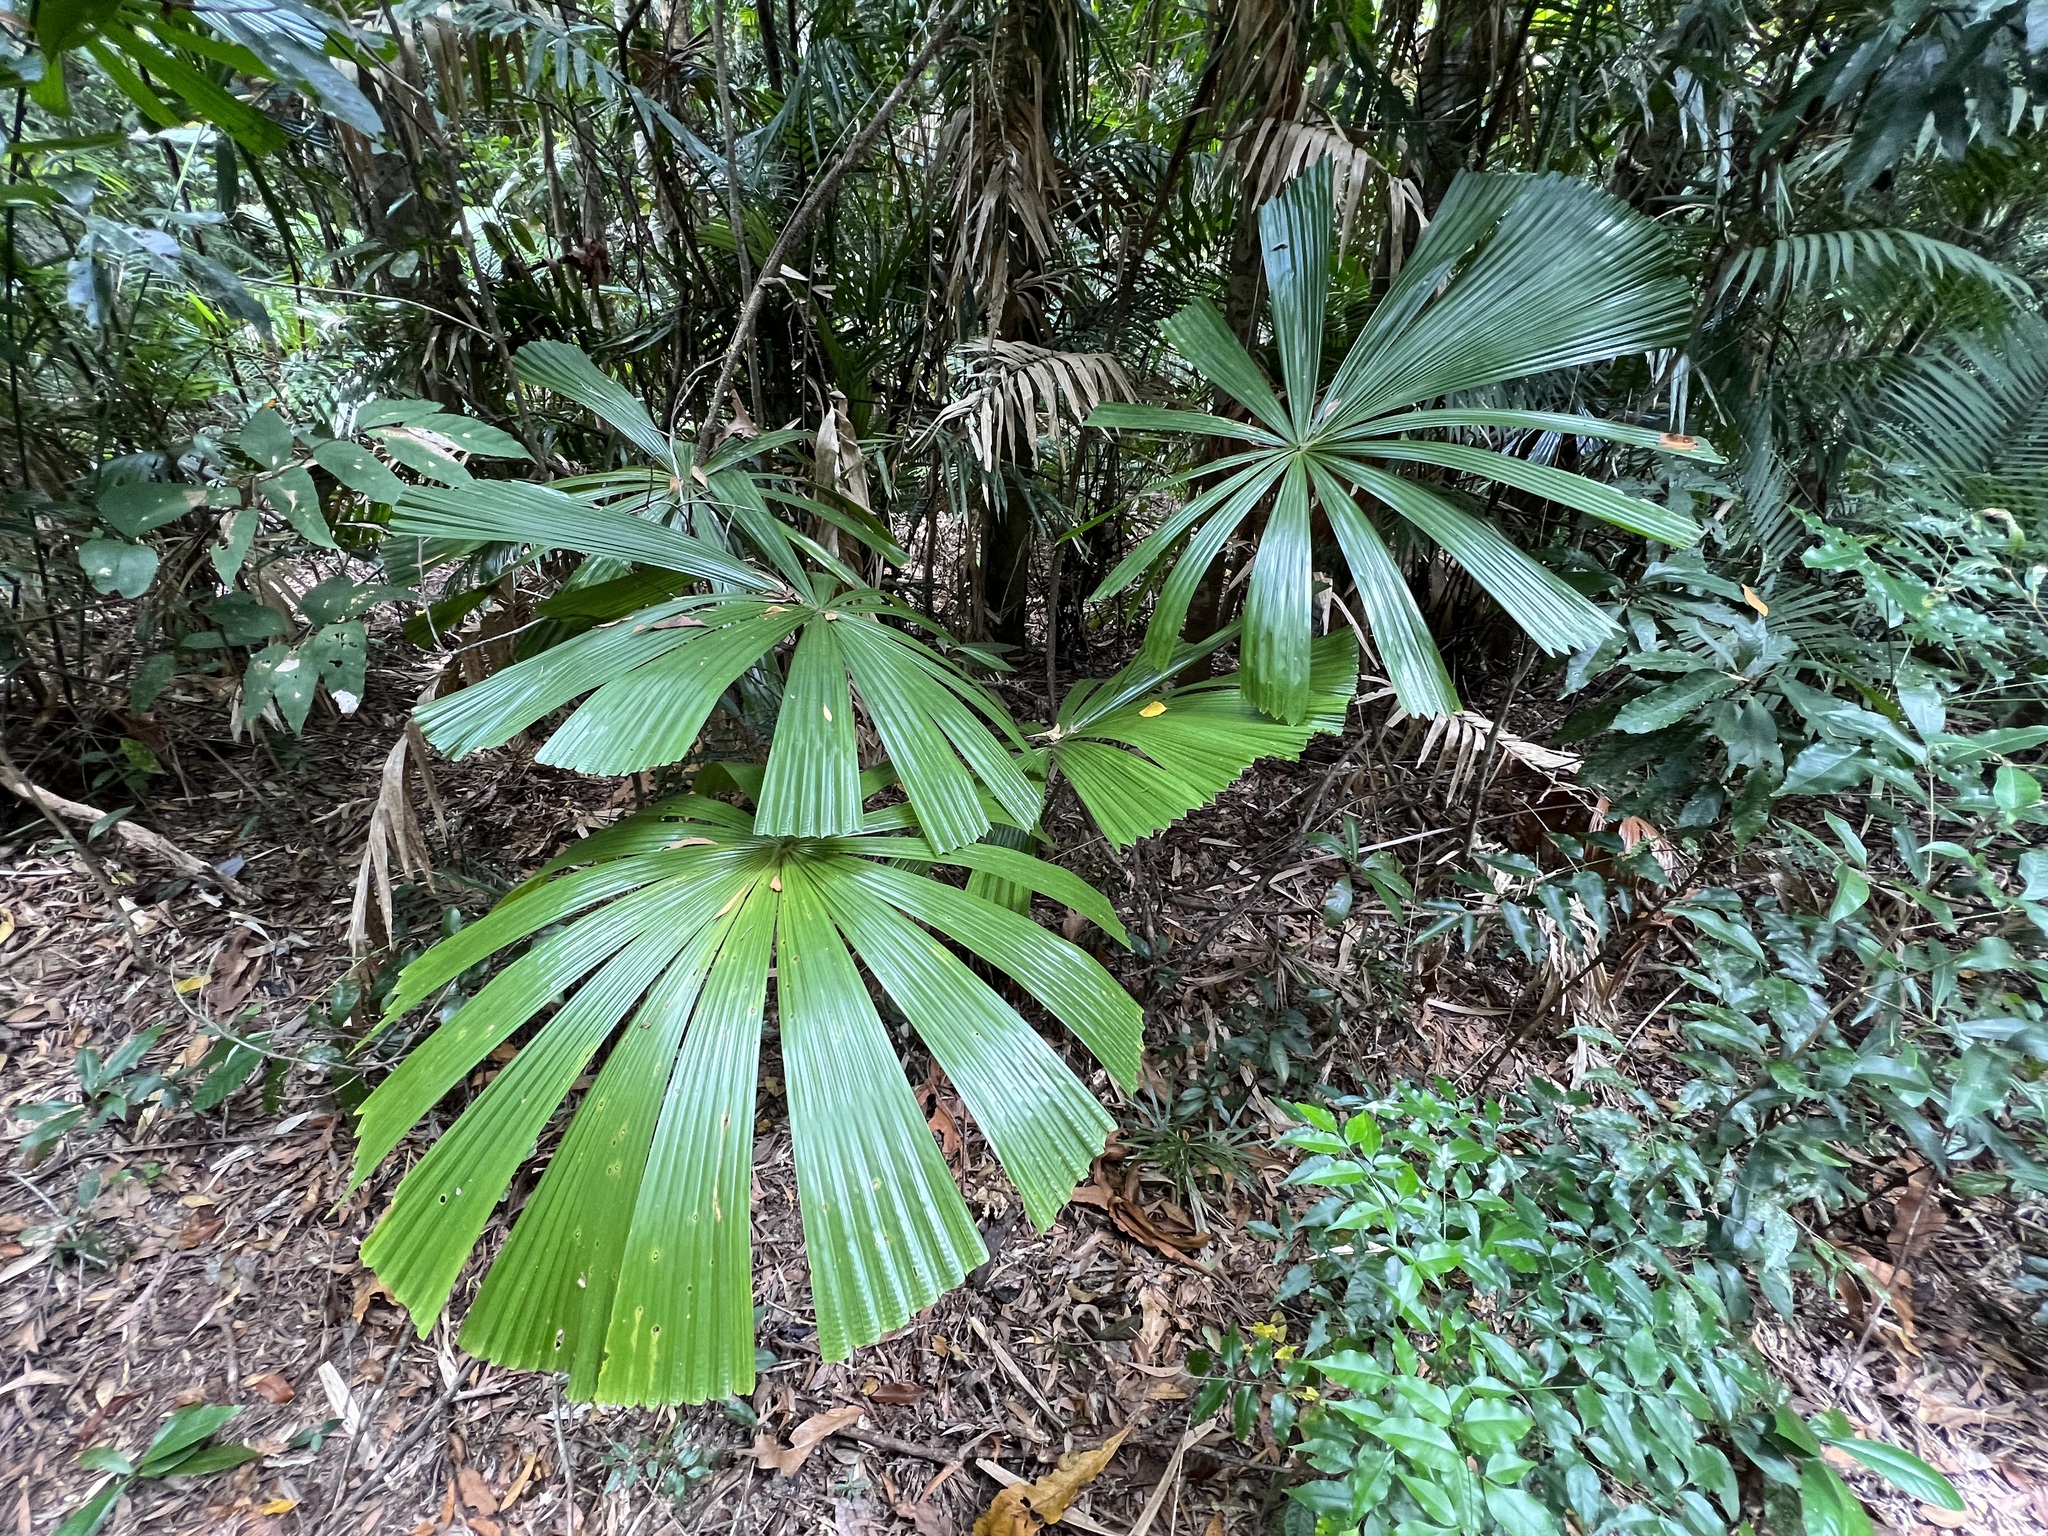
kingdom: Plantae
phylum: Tracheophyta
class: Liliopsida
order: Arecales
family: Arecaceae
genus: Licuala
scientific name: Licuala ramsayi
